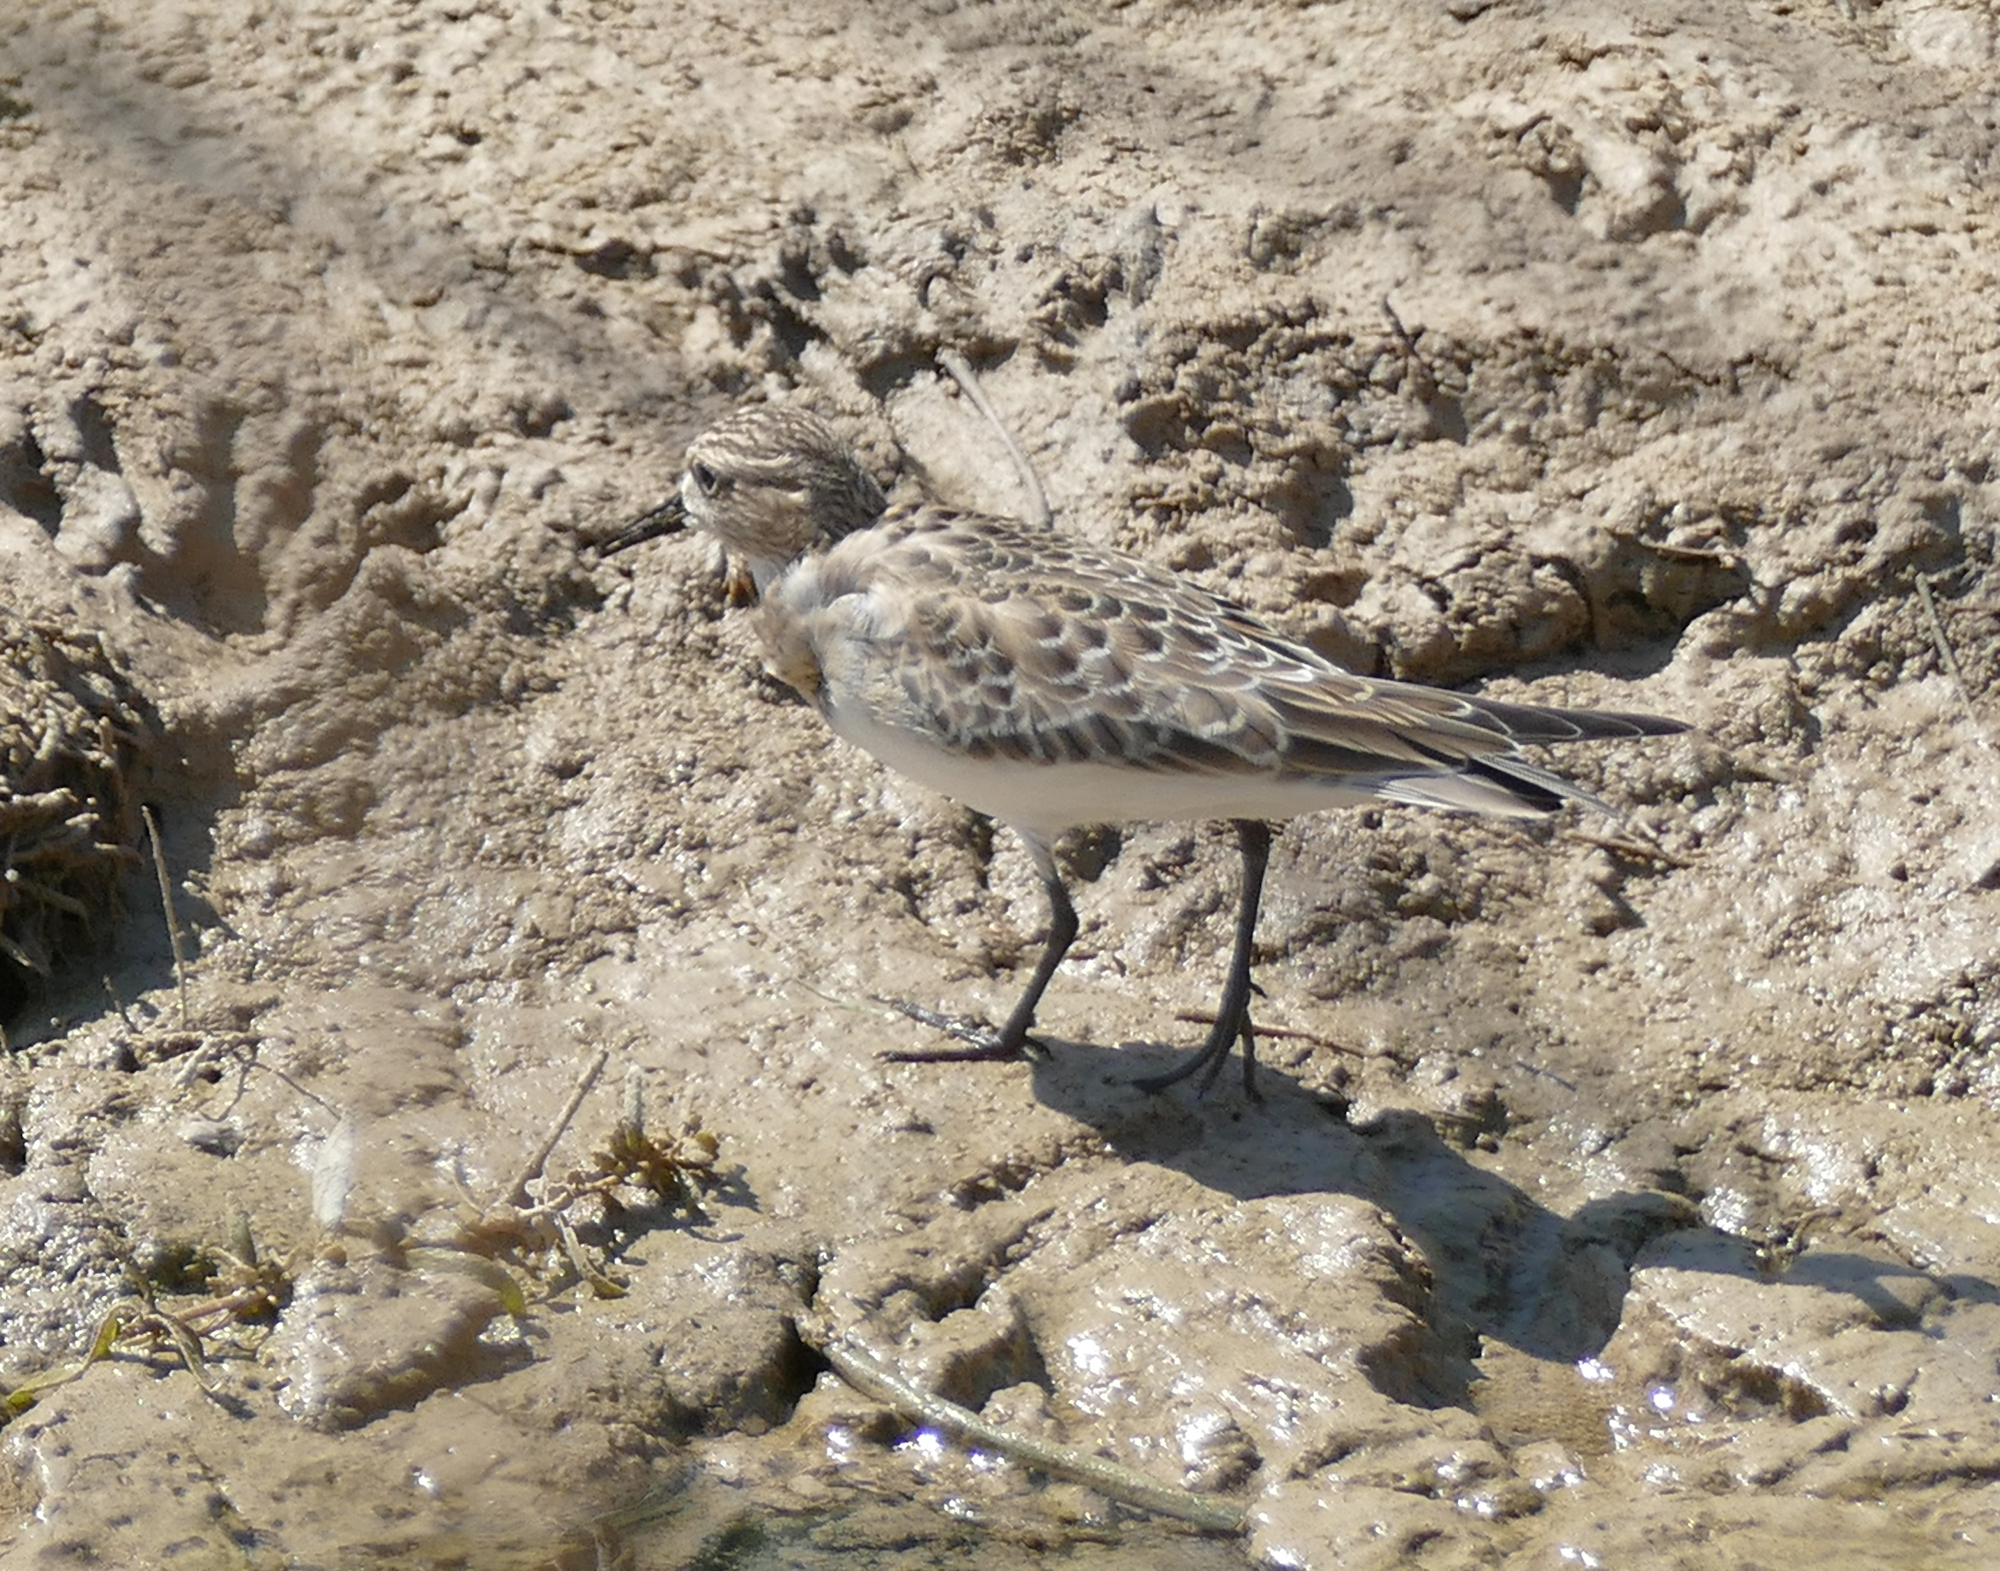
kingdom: Animalia
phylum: Chordata
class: Aves
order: Charadriiformes
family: Scolopacidae
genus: Calidris
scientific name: Calidris bairdii
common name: Baird's sandpiper
